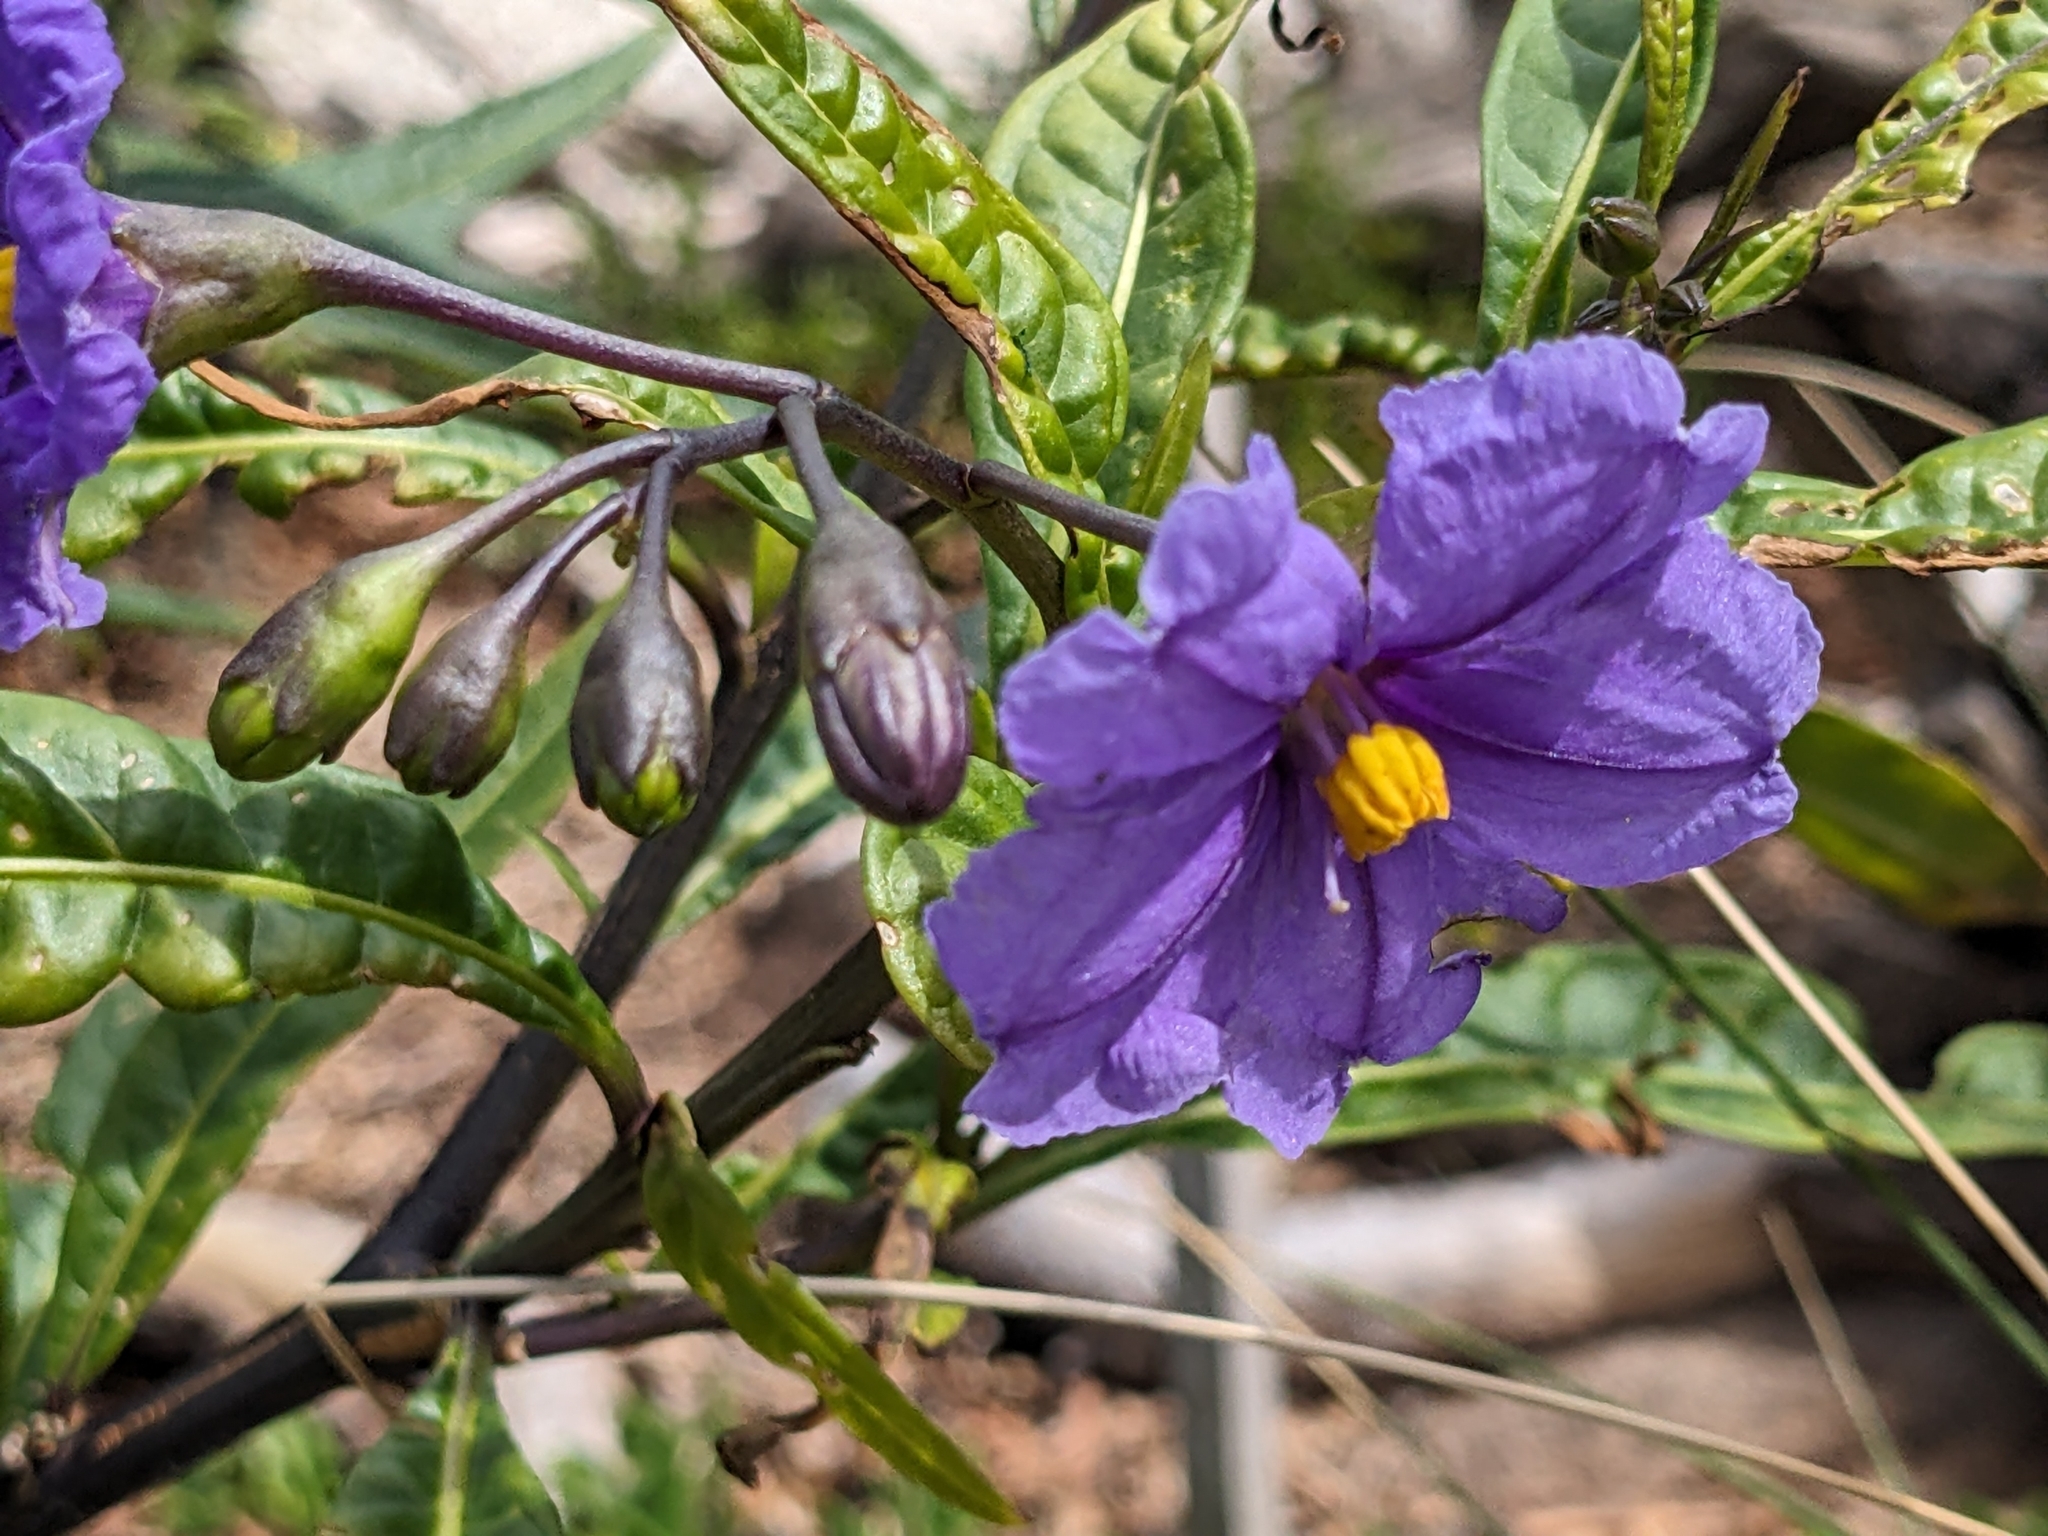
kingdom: Plantae
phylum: Tracheophyta
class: Magnoliopsida
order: Solanales
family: Solanaceae
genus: Solanum
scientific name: Solanum laciniatum
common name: Kangaroo-apple
